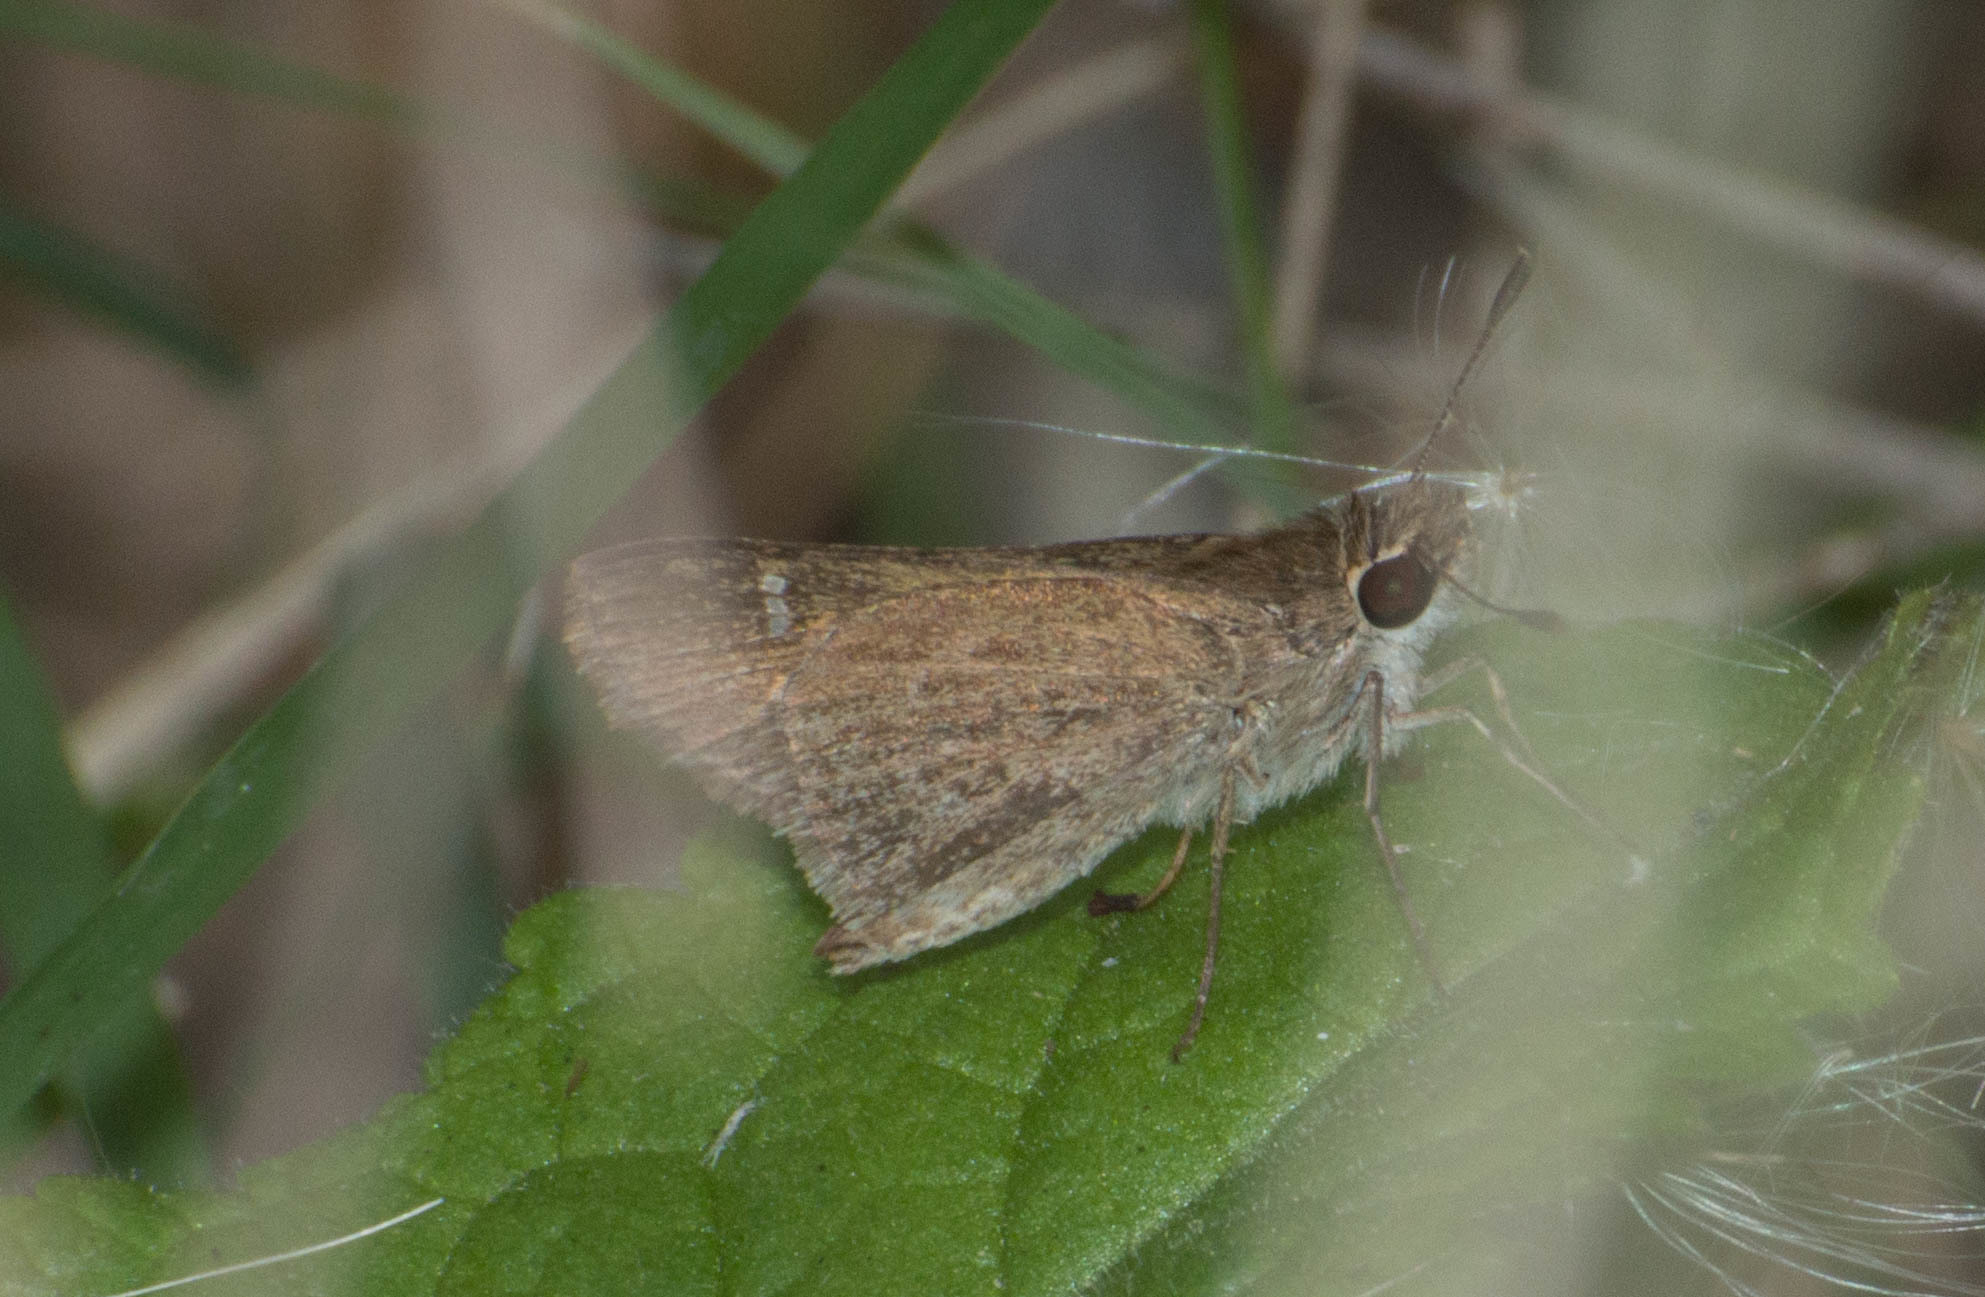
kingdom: Animalia
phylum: Arthropoda
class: Insecta
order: Lepidoptera
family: Hesperiidae
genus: Lerodea
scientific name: Lerodea eufala
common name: Eufala skipper
